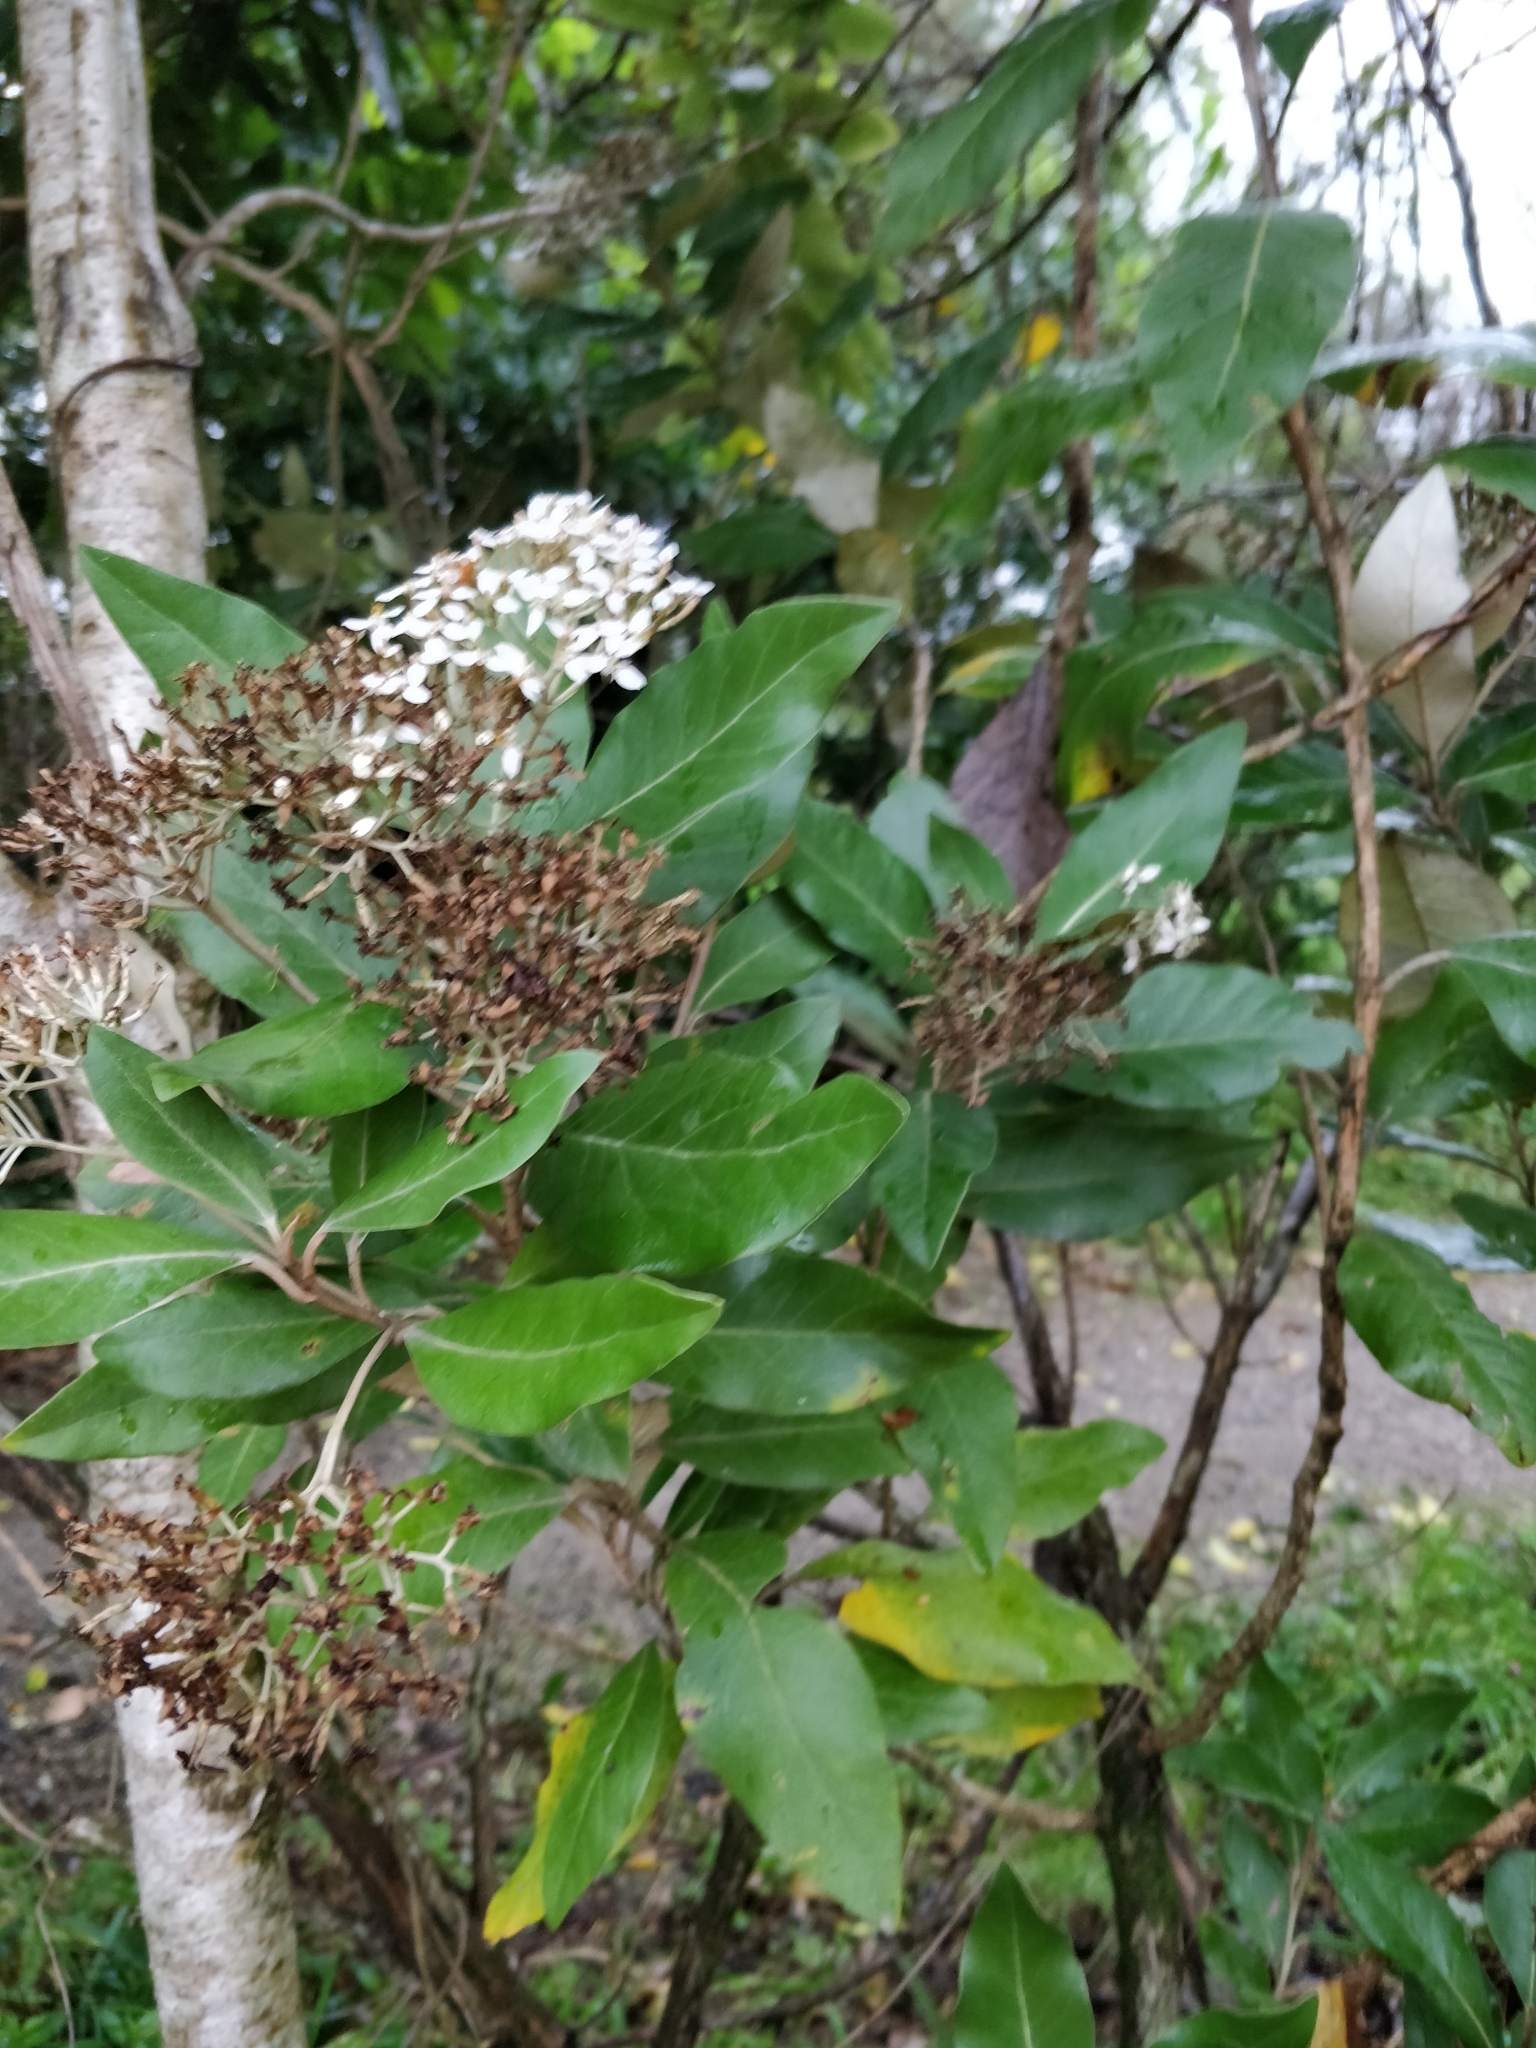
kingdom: Plantae
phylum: Tracheophyta
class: Magnoliopsida
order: Asterales
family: Asteraceae
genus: Olearia
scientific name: Olearia avicenniifolia
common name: Mangrove-leaf daisybush
